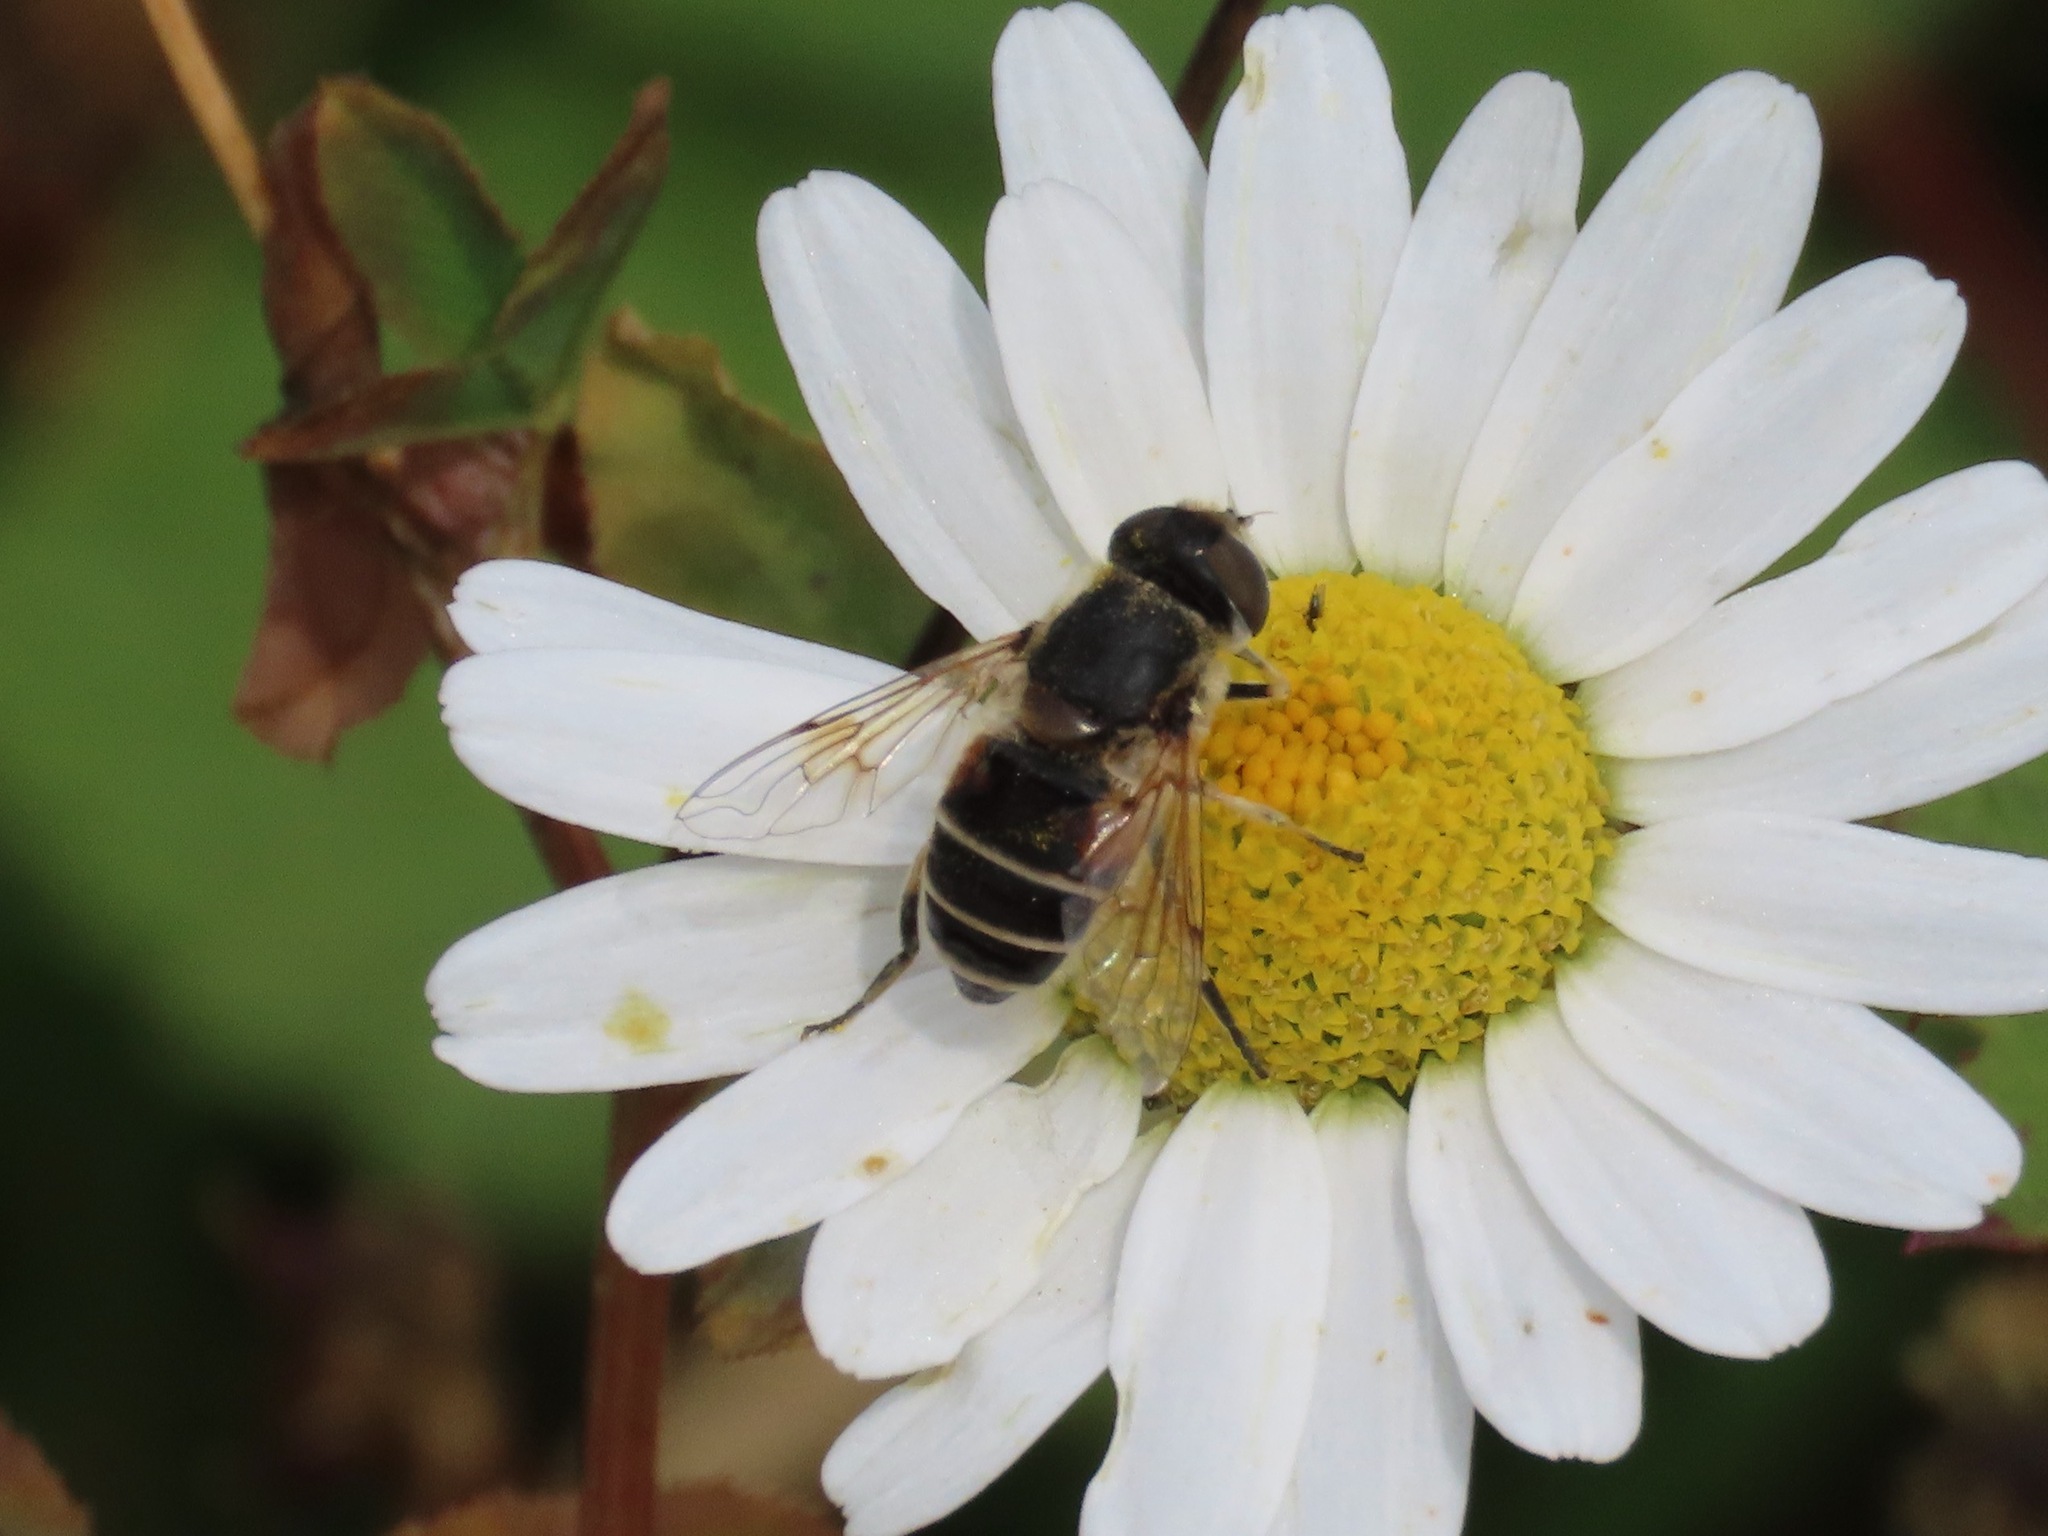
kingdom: Animalia
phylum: Arthropoda
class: Insecta
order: Diptera
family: Syrphidae
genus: Eristalis
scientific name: Eristalis arbustorum
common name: Hover fly
